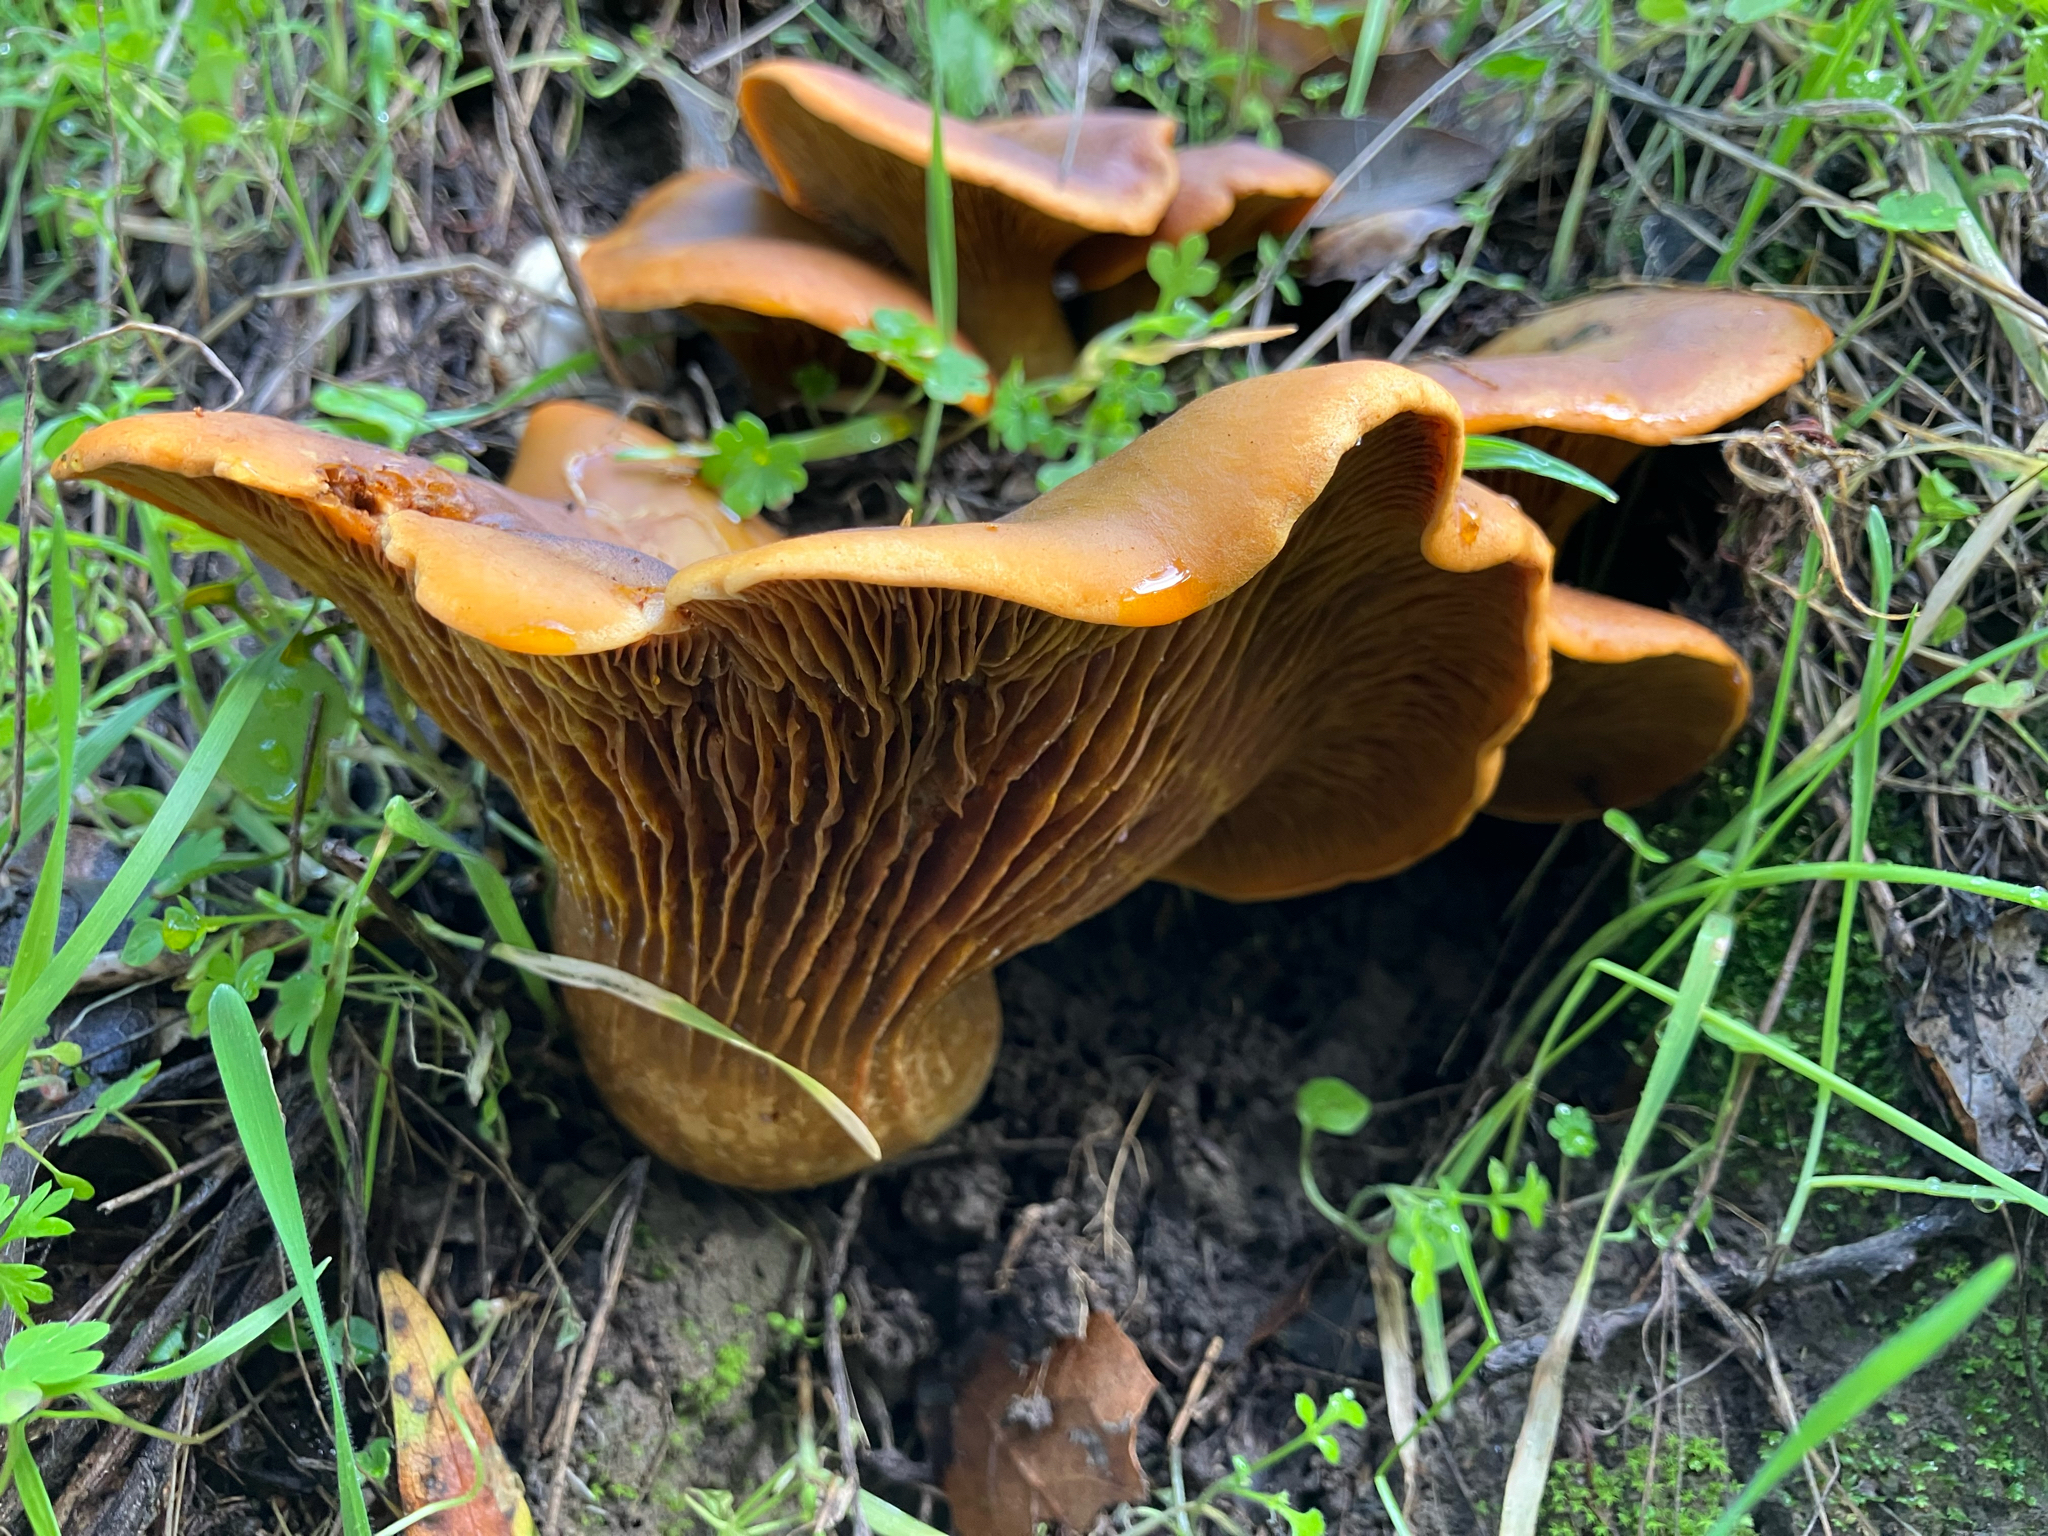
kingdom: Fungi
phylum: Basidiomycota
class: Agaricomycetes
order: Agaricales
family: Omphalotaceae
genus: Omphalotus
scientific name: Omphalotus olivascens
